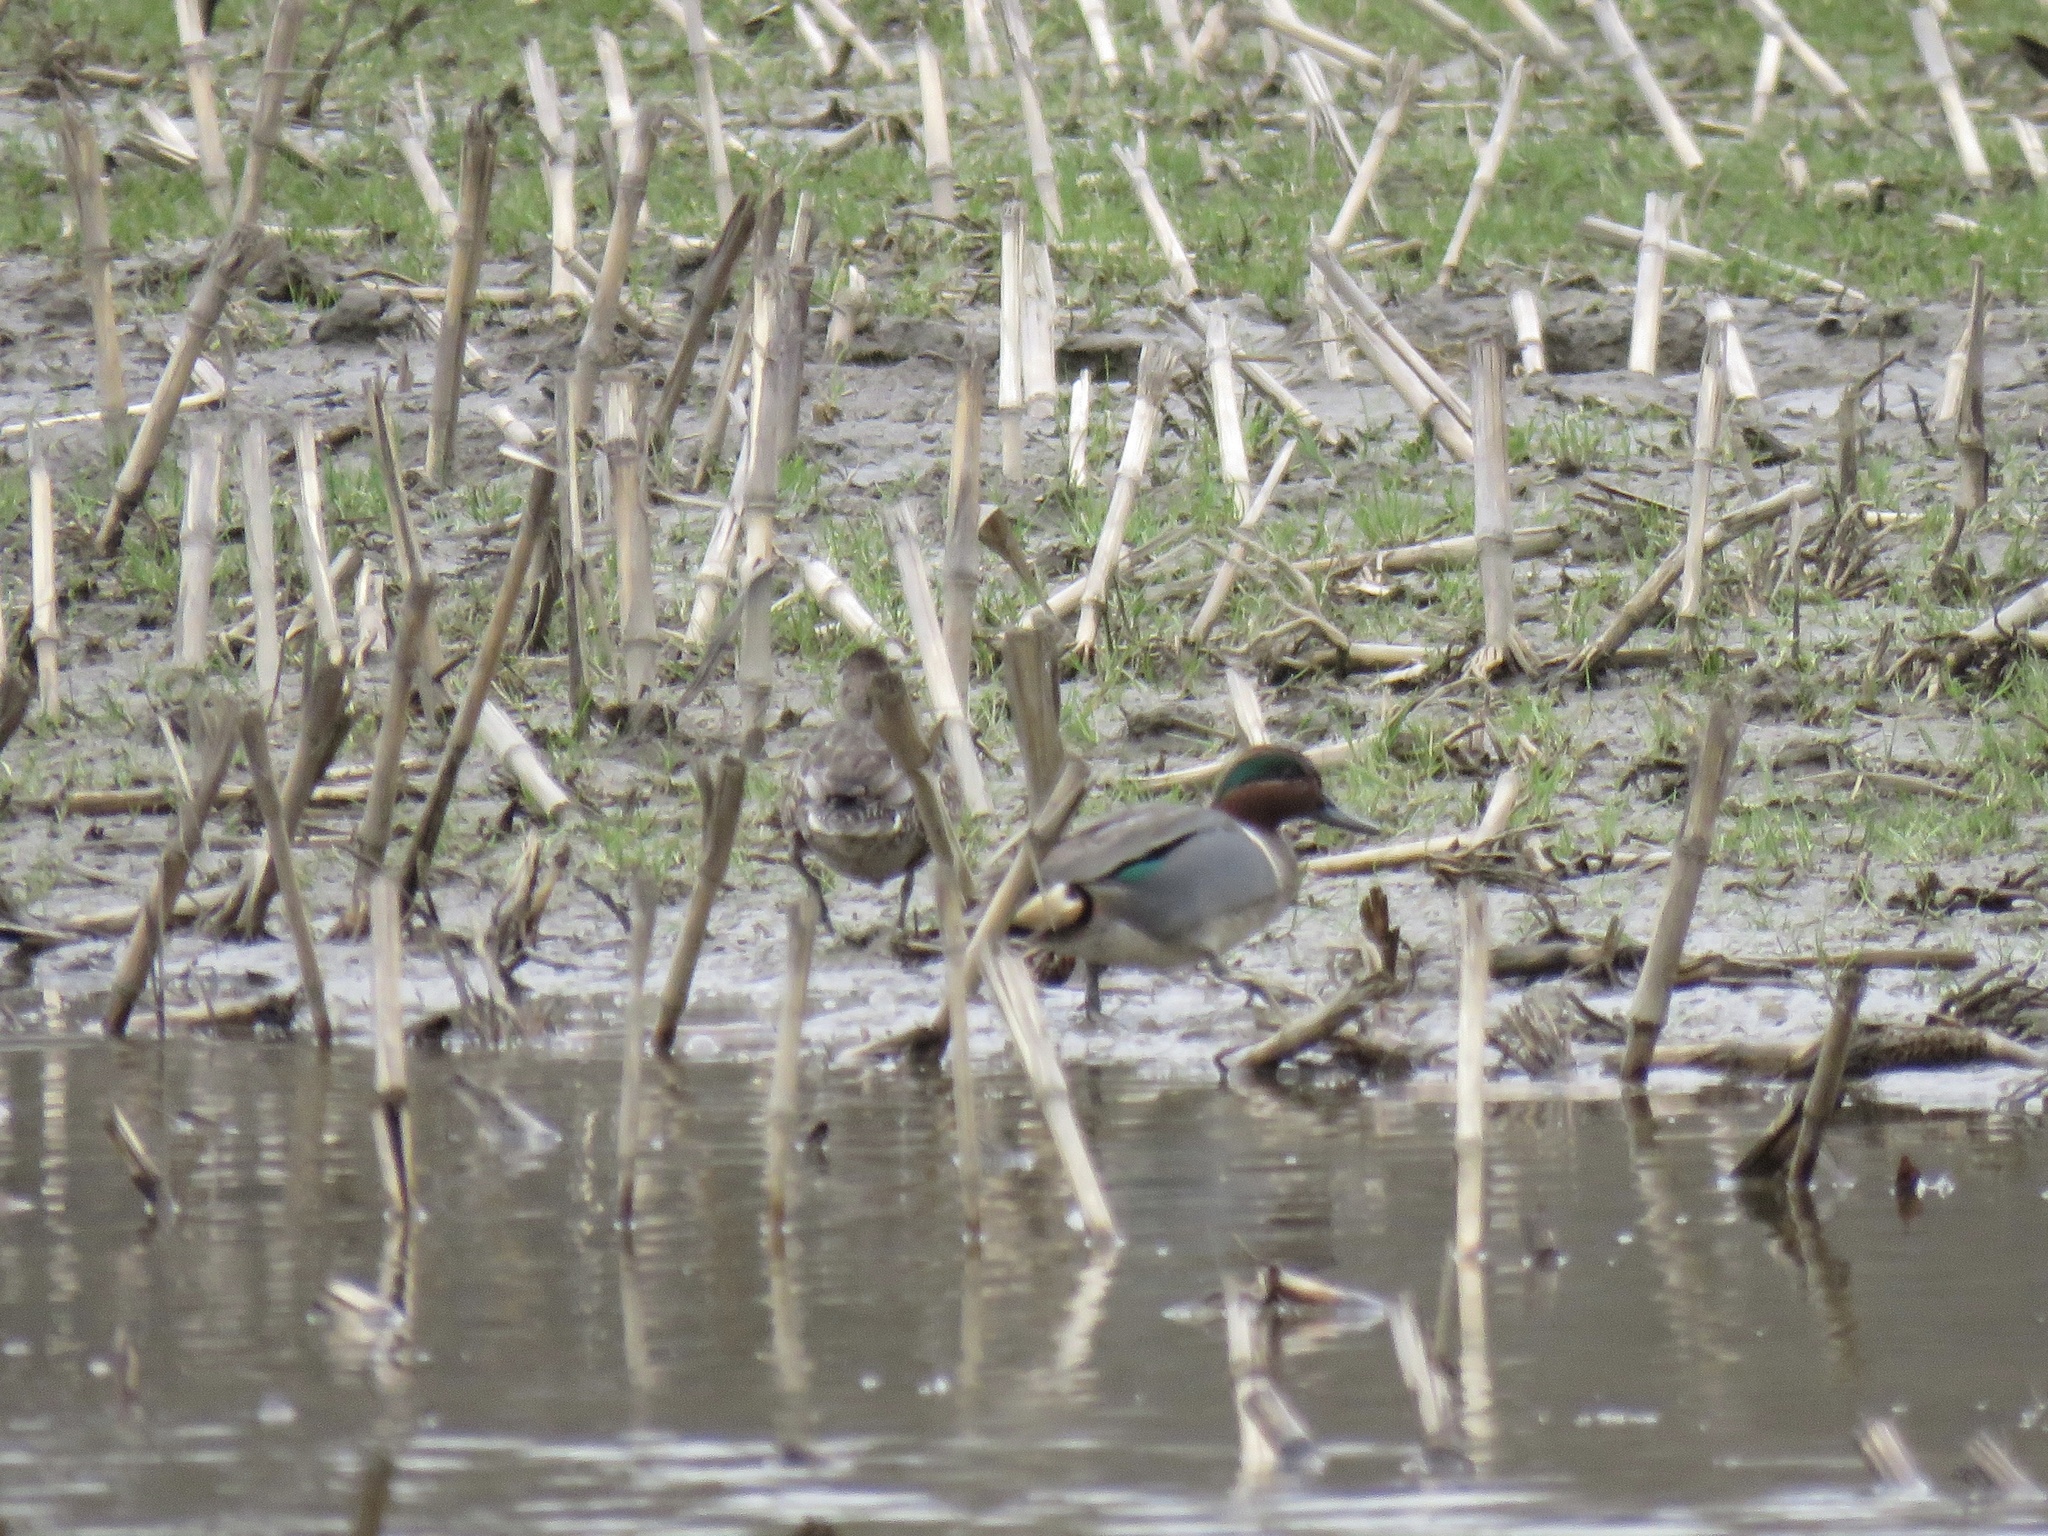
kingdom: Animalia
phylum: Chordata
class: Aves
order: Anseriformes
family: Anatidae
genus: Anas
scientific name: Anas crecca
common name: Eurasian teal
